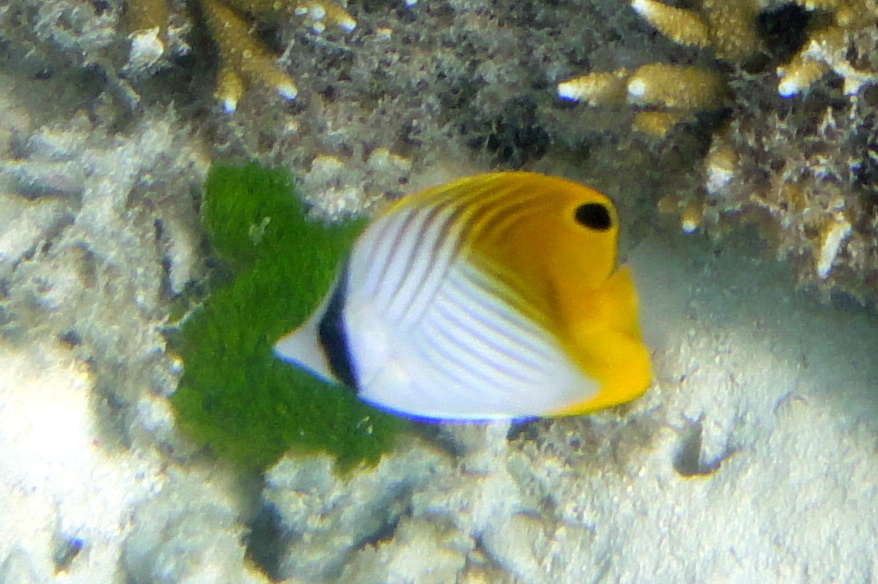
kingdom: Animalia
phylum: Chordata
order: Perciformes
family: Chaetodontidae
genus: Chaetodon
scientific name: Chaetodon auriga
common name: Threadfin butterflyfish
